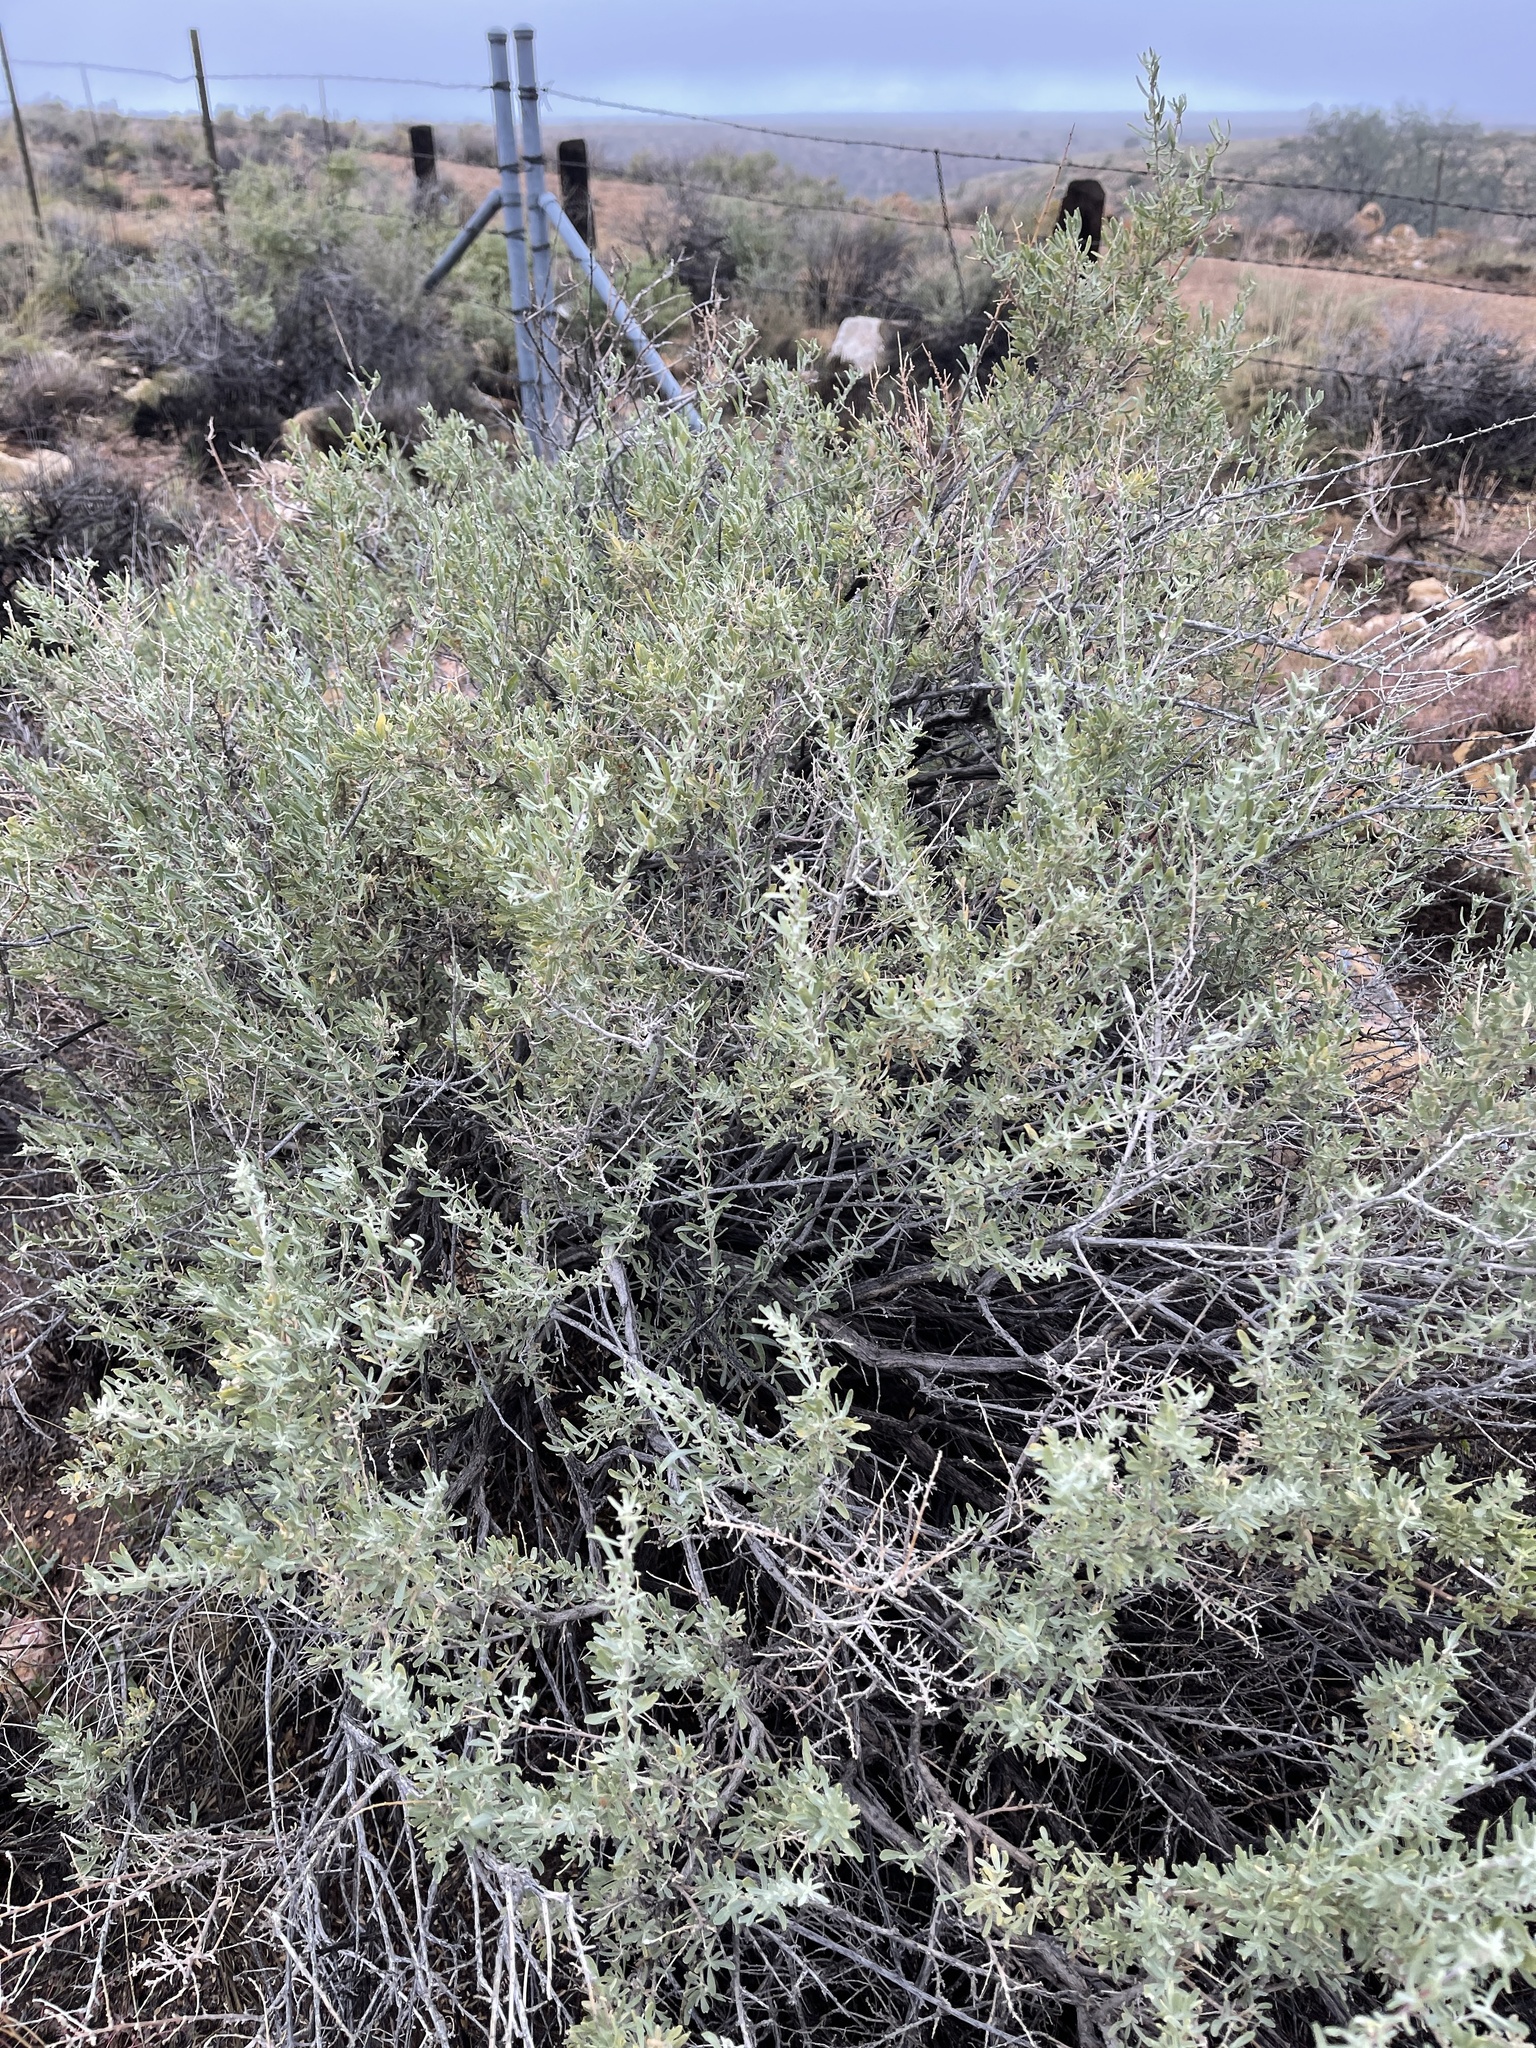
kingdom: Plantae
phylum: Tracheophyta
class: Magnoliopsida
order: Caryophyllales
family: Amaranthaceae
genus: Atriplex
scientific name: Atriplex canescens
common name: Four-wing saltbush
